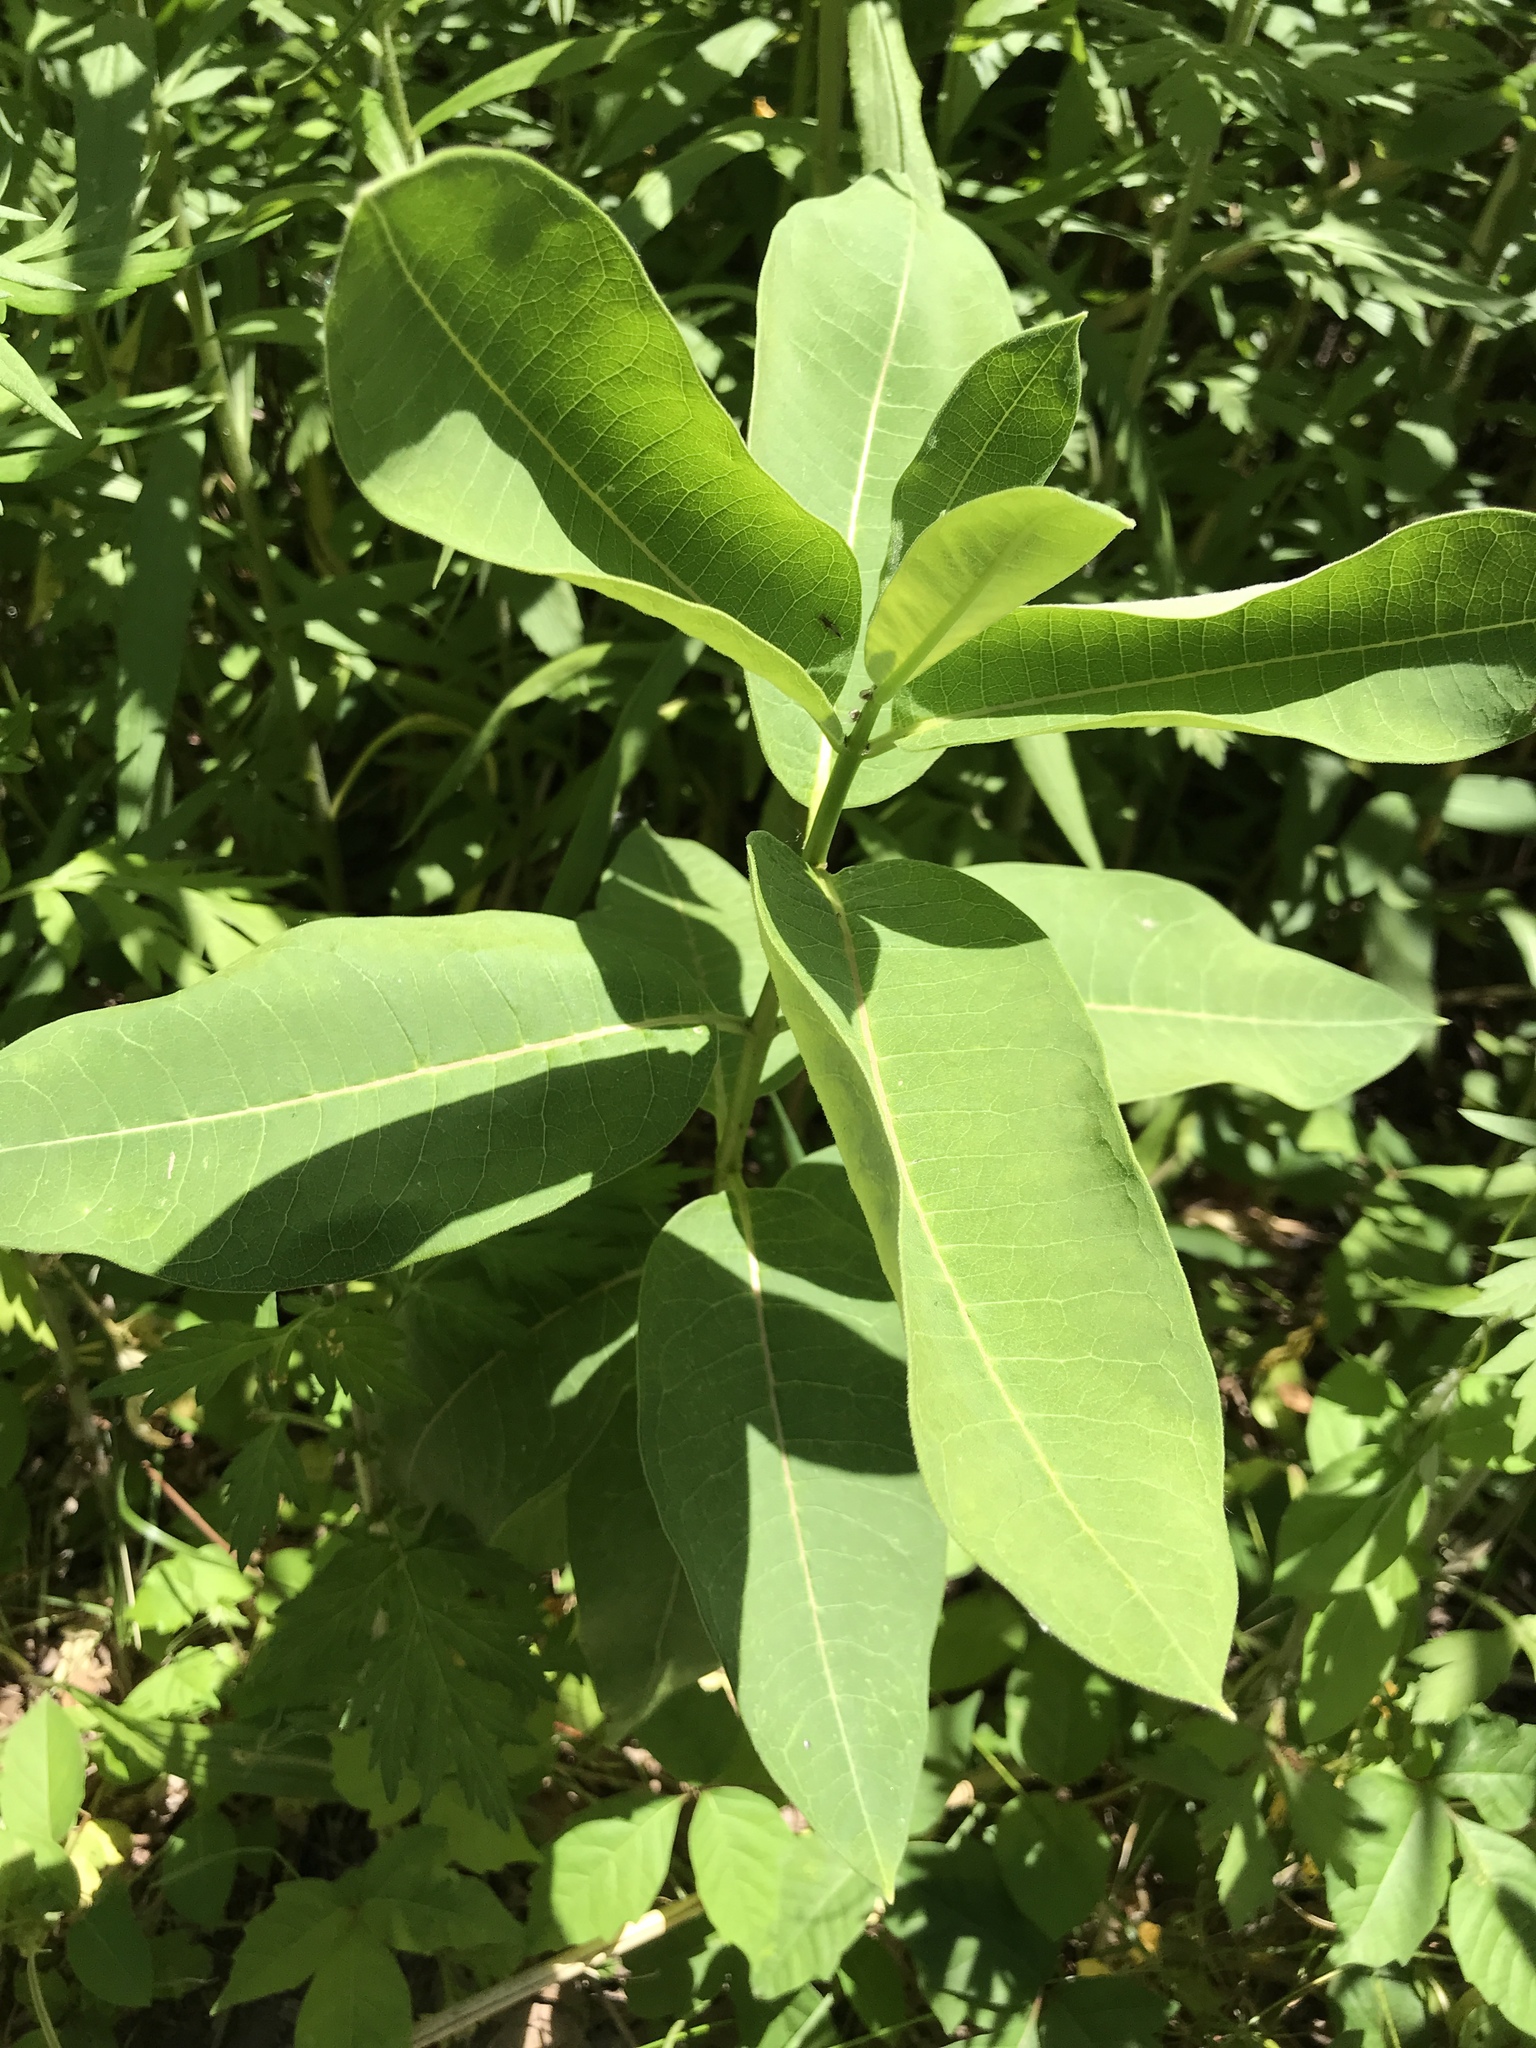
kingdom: Plantae
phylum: Tracheophyta
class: Magnoliopsida
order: Gentianales
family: Apocynaceae
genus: Asclepias
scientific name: Asclepias syriaca
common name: Common milkweed
